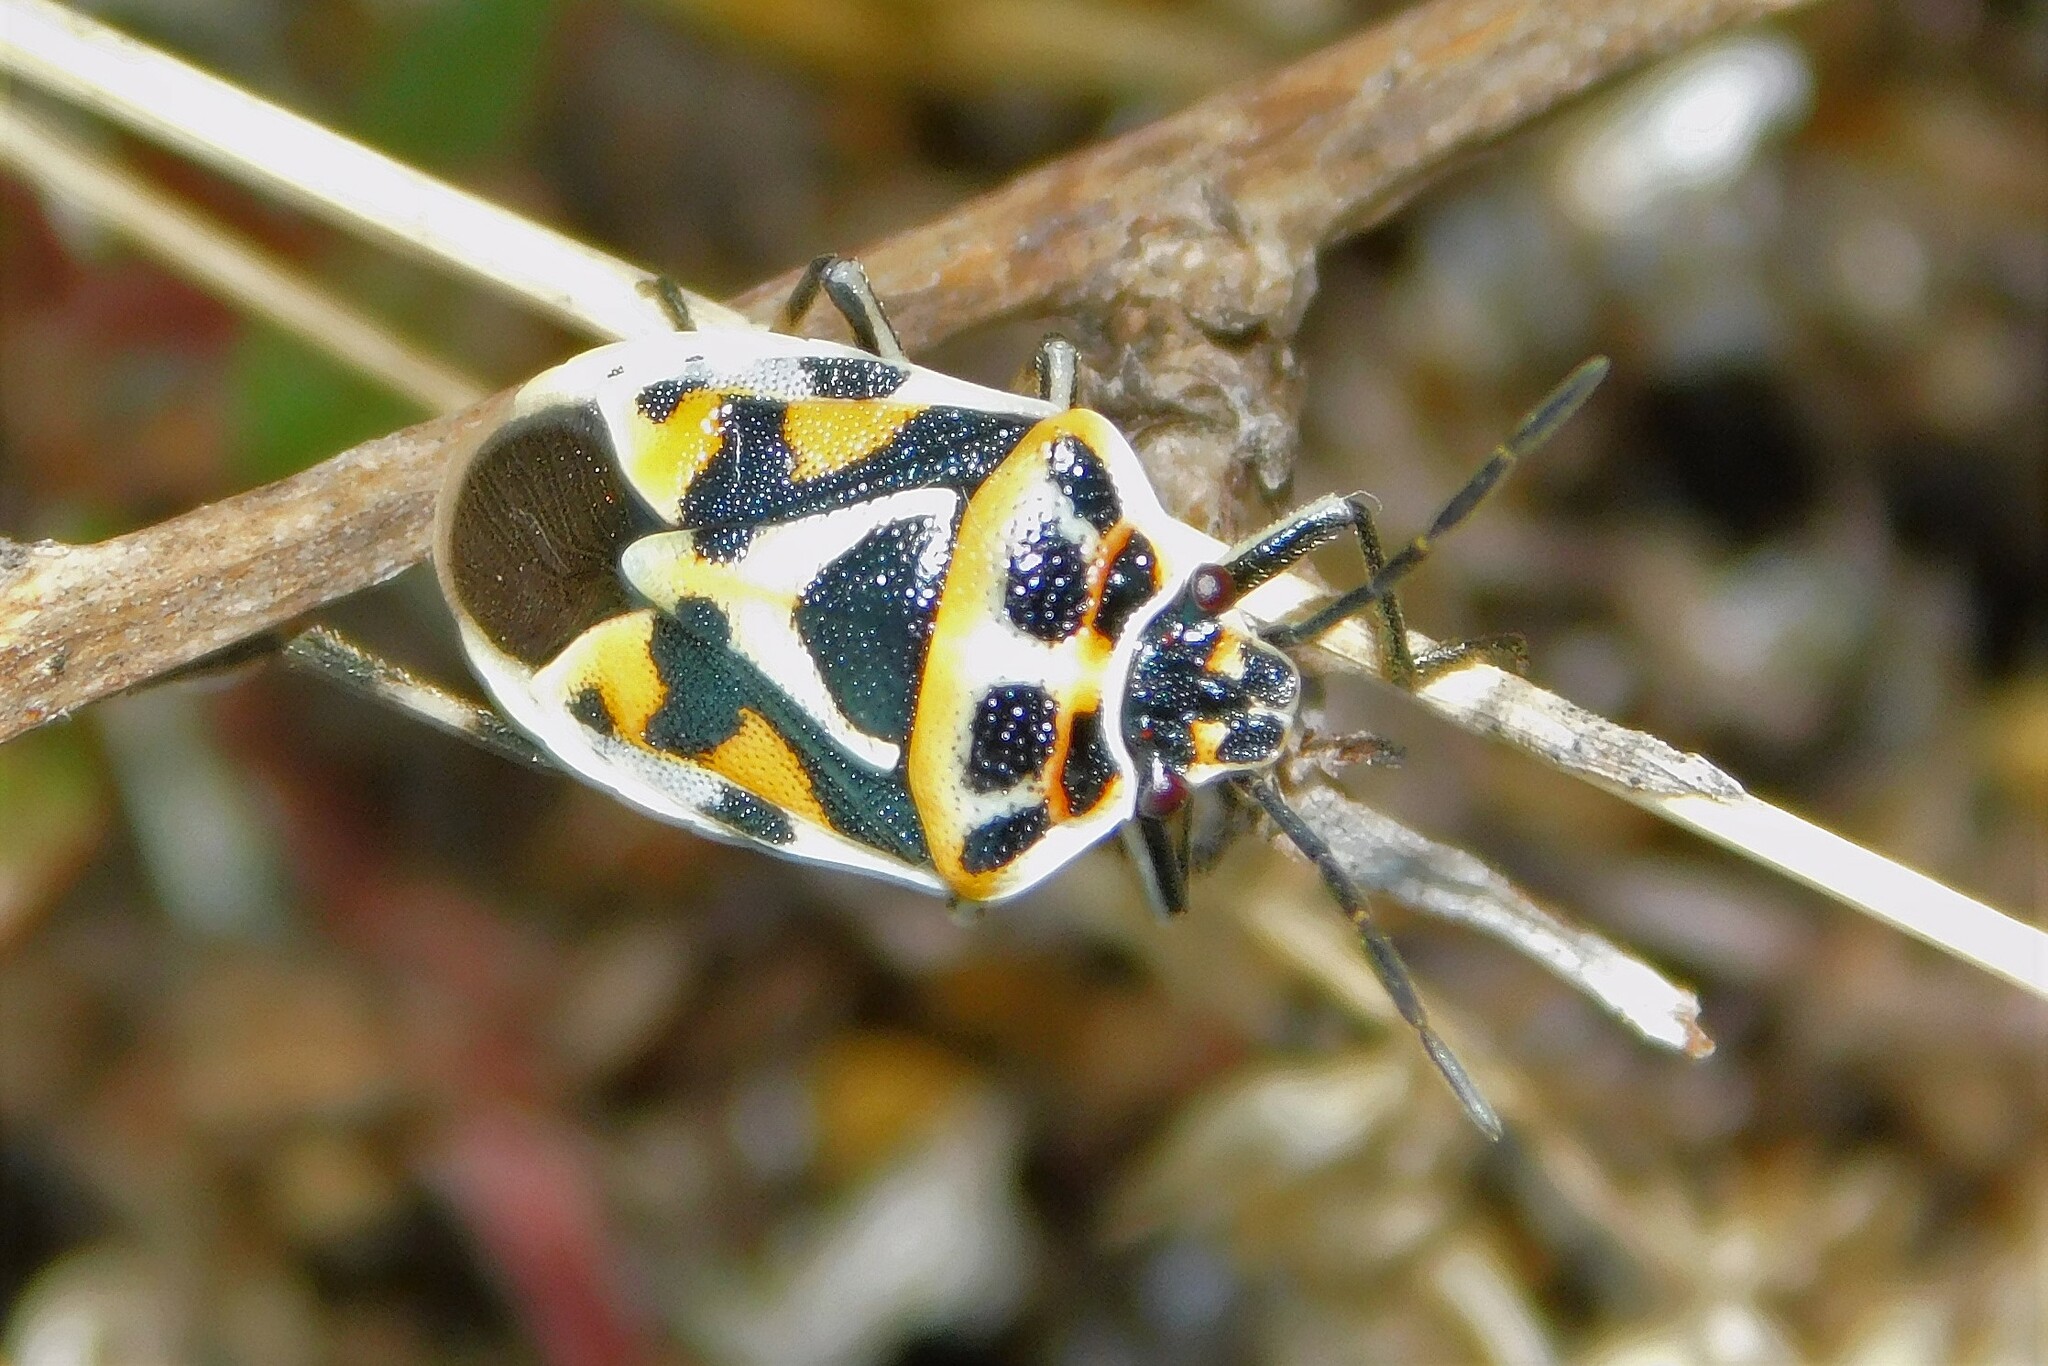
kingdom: Animalia
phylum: Arthropoda
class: Insecta
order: Hemiptera
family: Pentatomidae
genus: Eurydema
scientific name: Eurydema ornata
